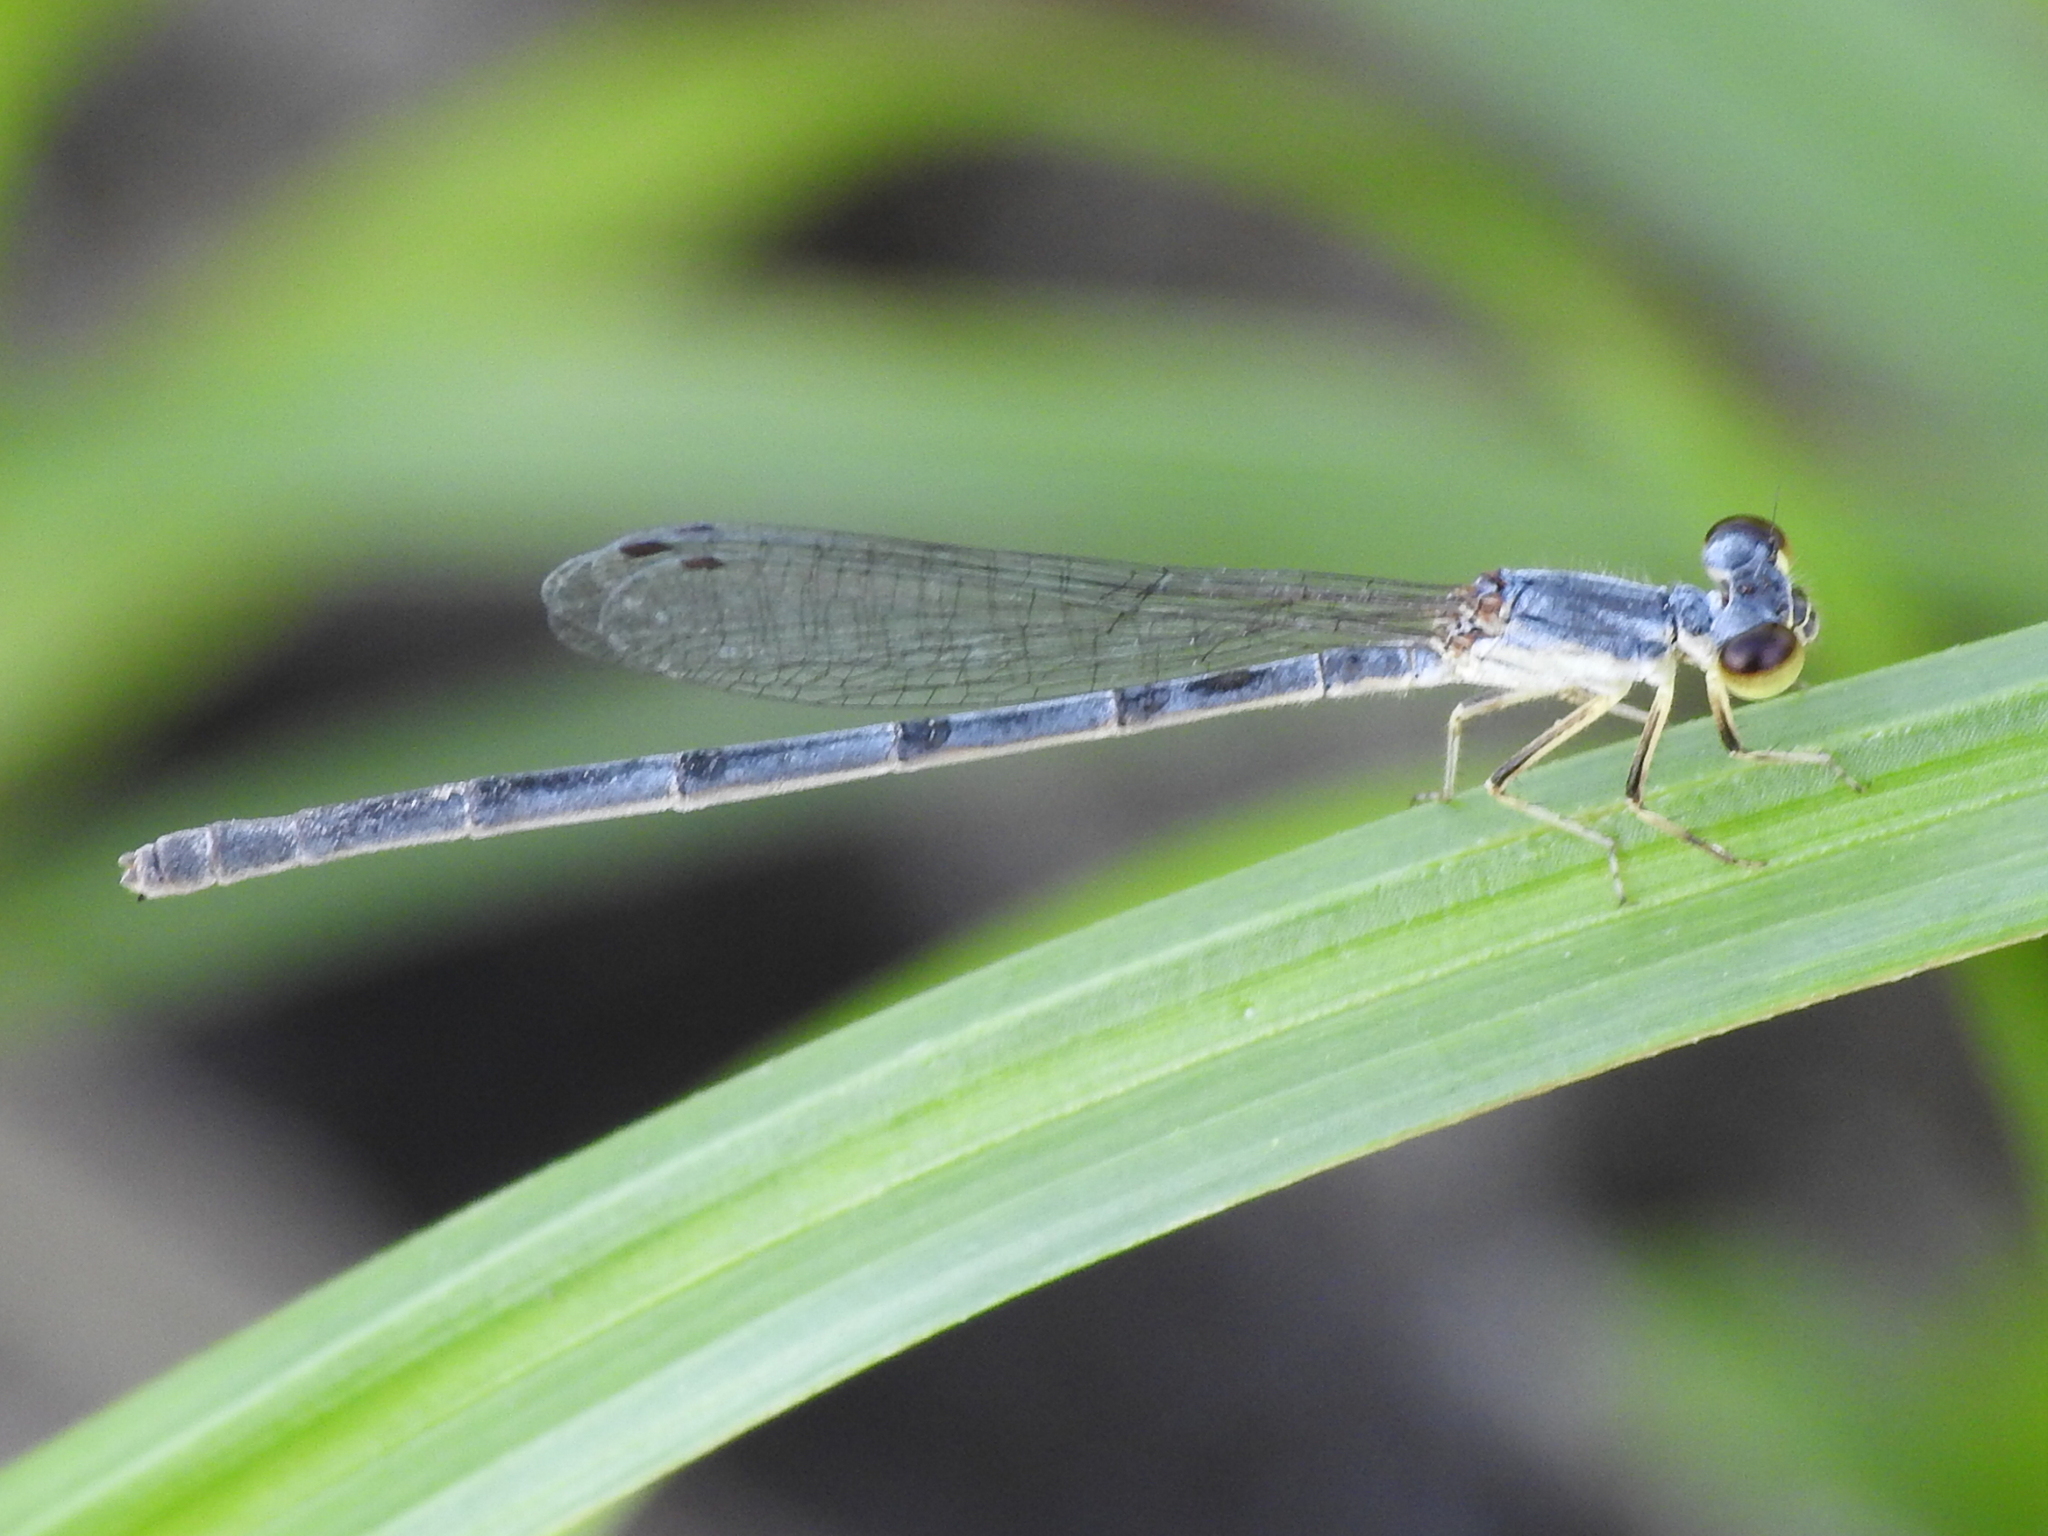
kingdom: Animalia
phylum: Arthropoda
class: Insecta
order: Odonata
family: Coenagrionidae
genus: Ischnura
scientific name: Ischnura posita
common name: Fragile forktail
